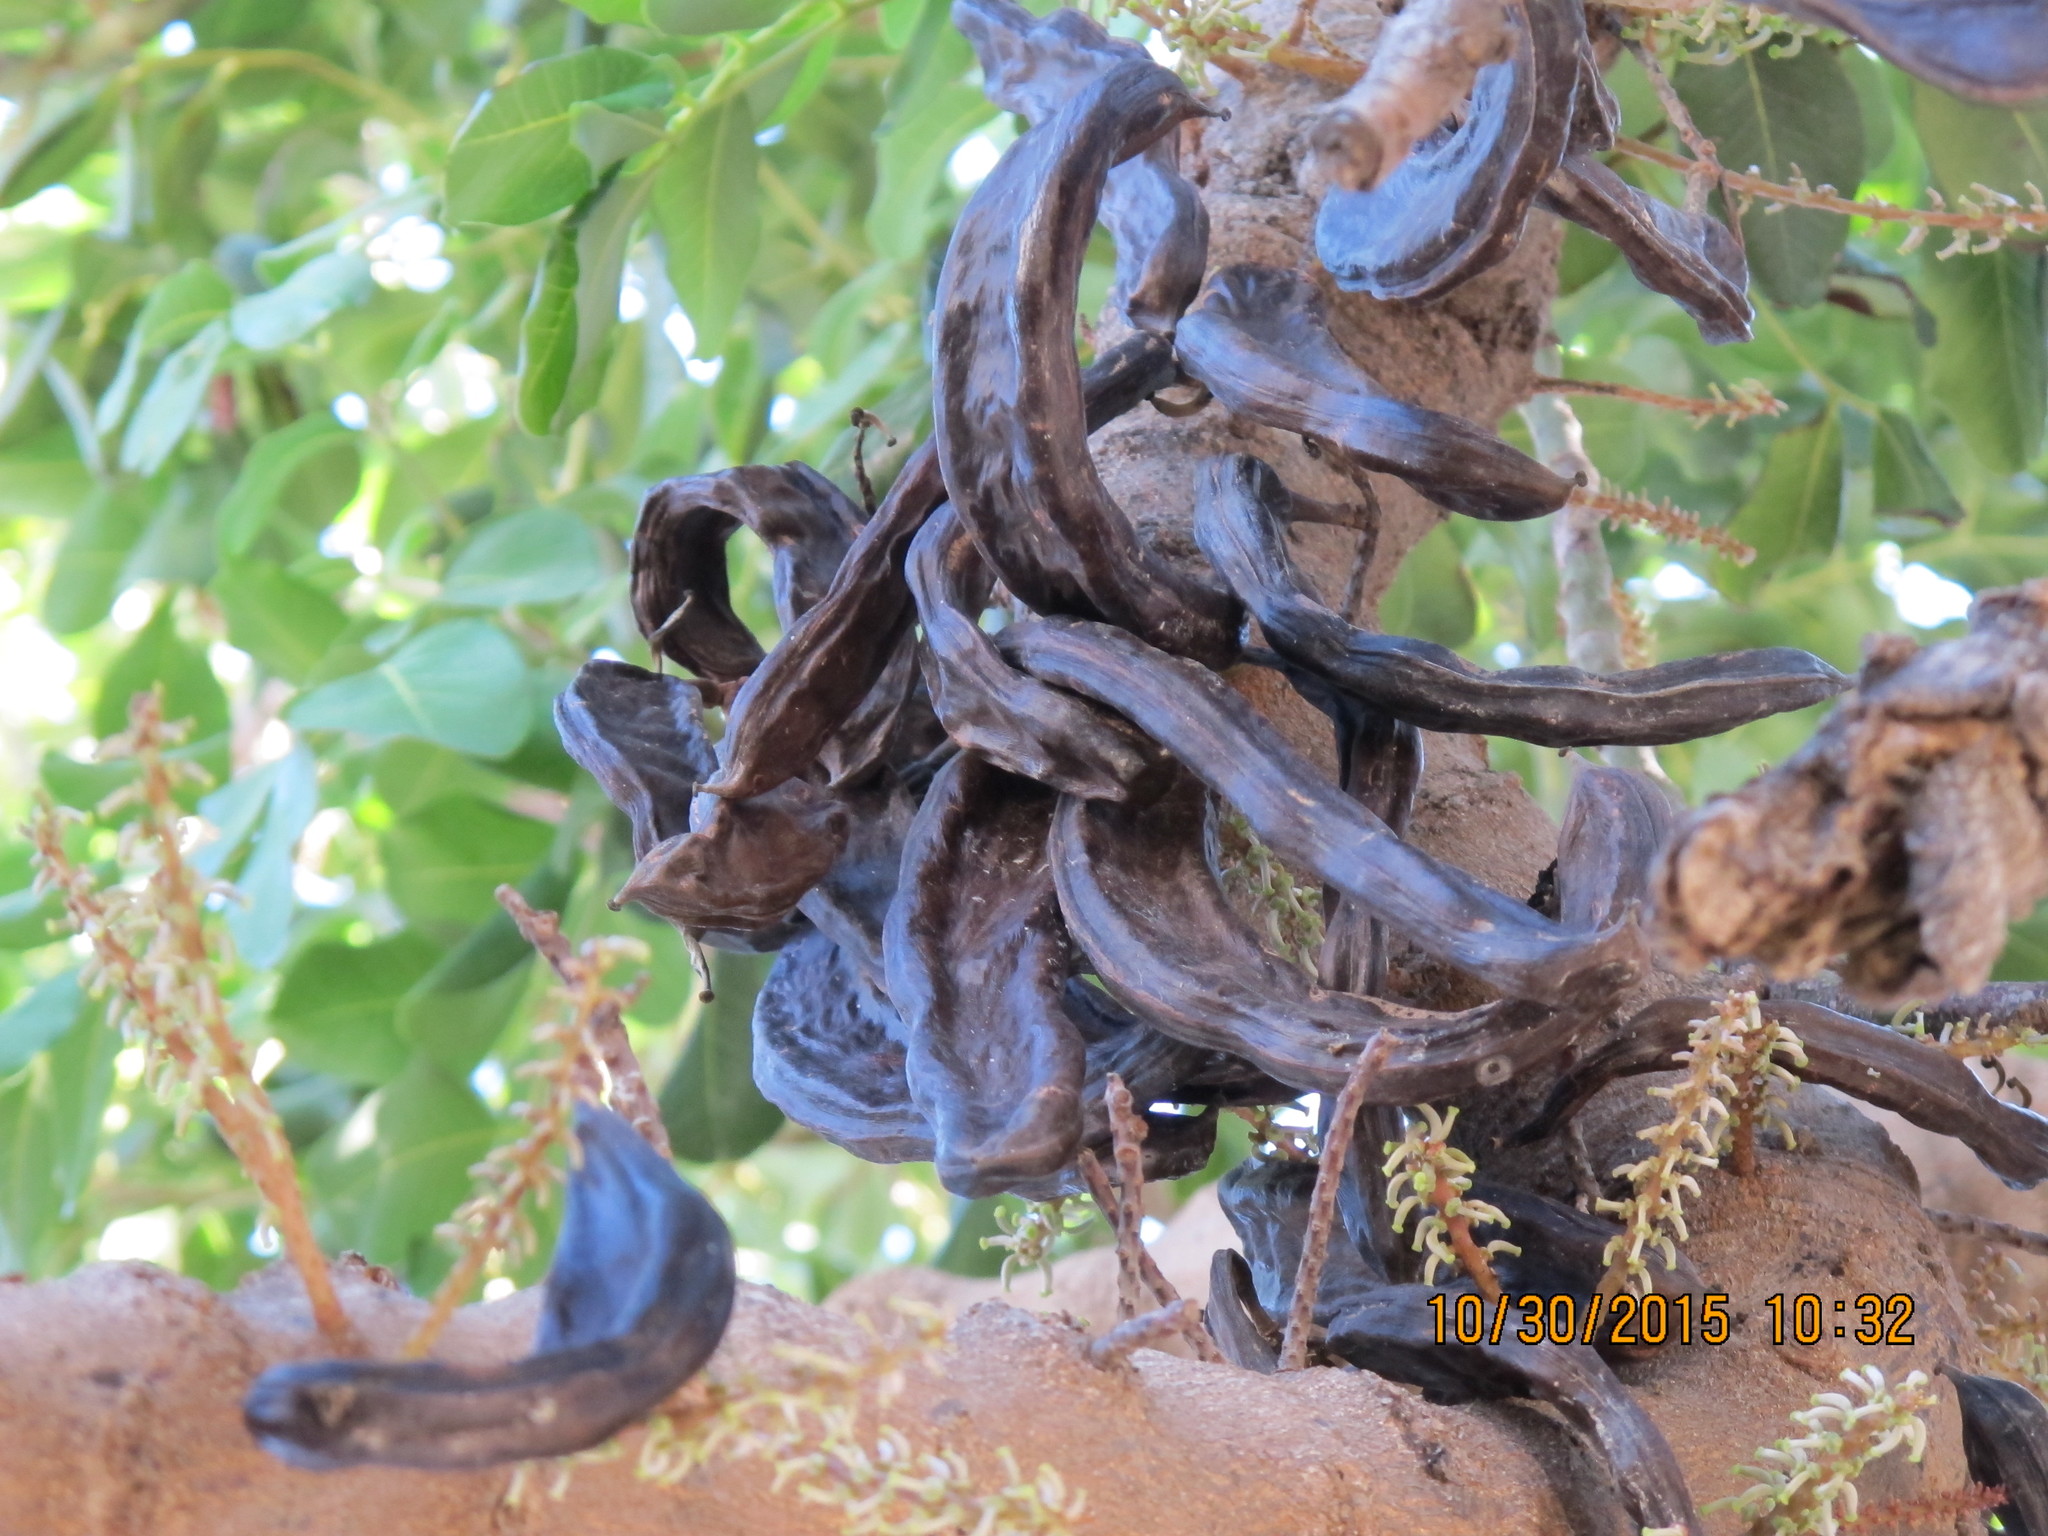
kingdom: Plantae
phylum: Tracheophyta
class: Magnoliopsida
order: Fabales
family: Fabaceae
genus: Ceratonia
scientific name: Ceratonia siliqua
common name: Carob
